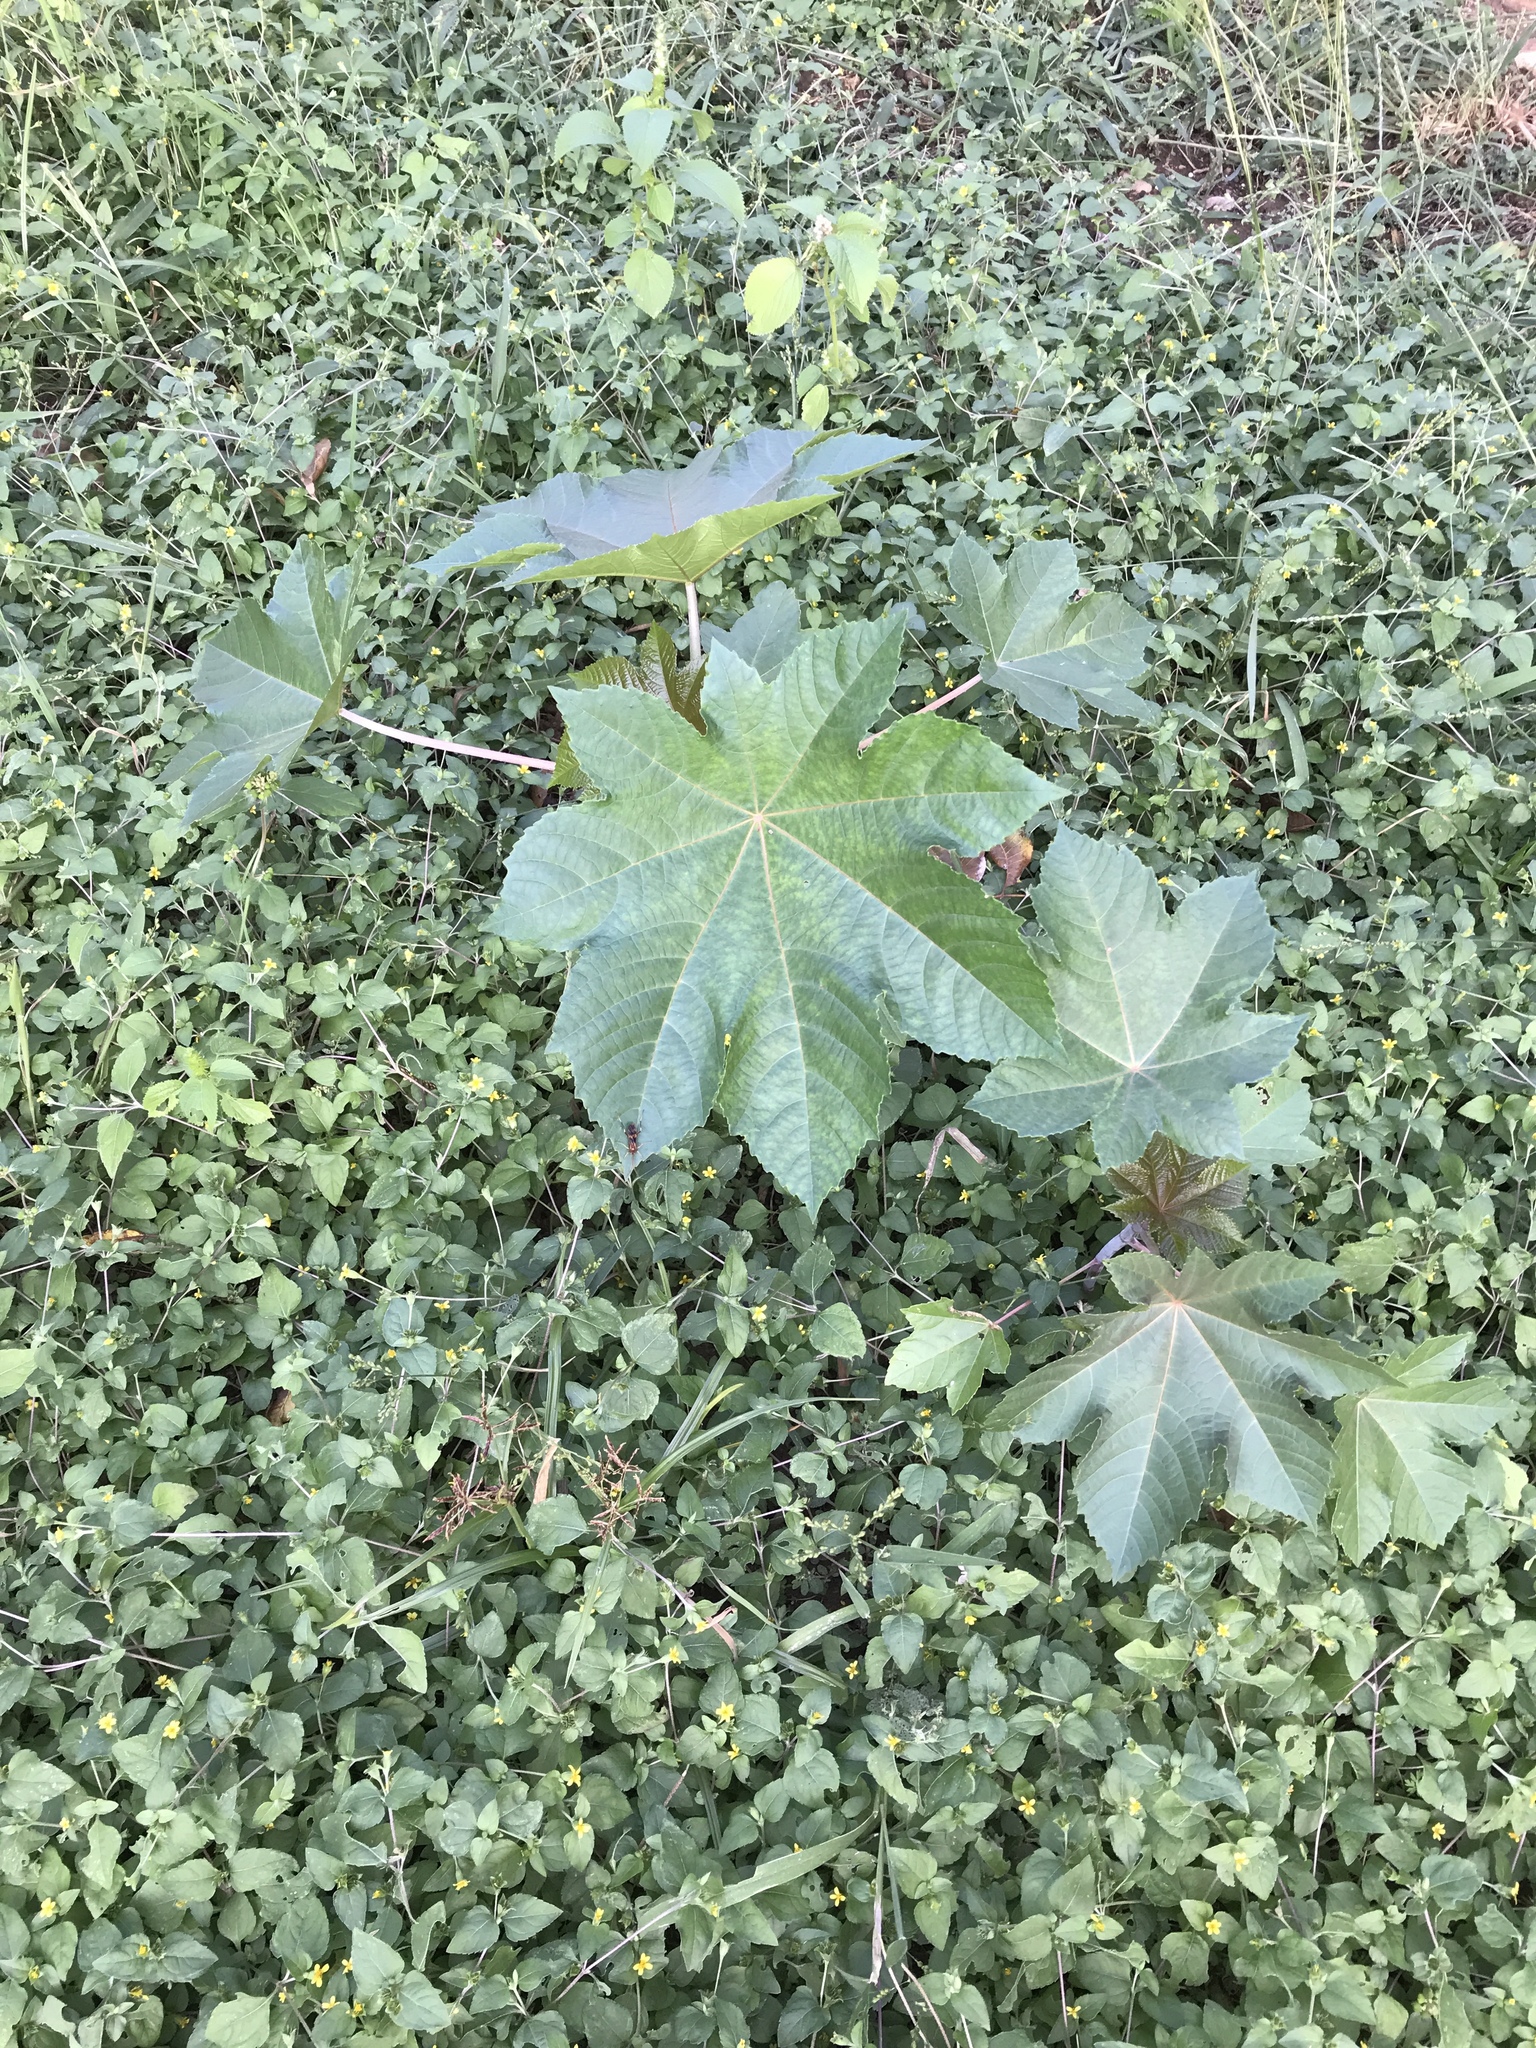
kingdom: Plantae
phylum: Tracheophyta
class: Magnoliopsida
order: Malpighiales
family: Euphorbiaceae
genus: Ricinus
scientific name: Ricinus communis
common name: Castor-oil-plant
